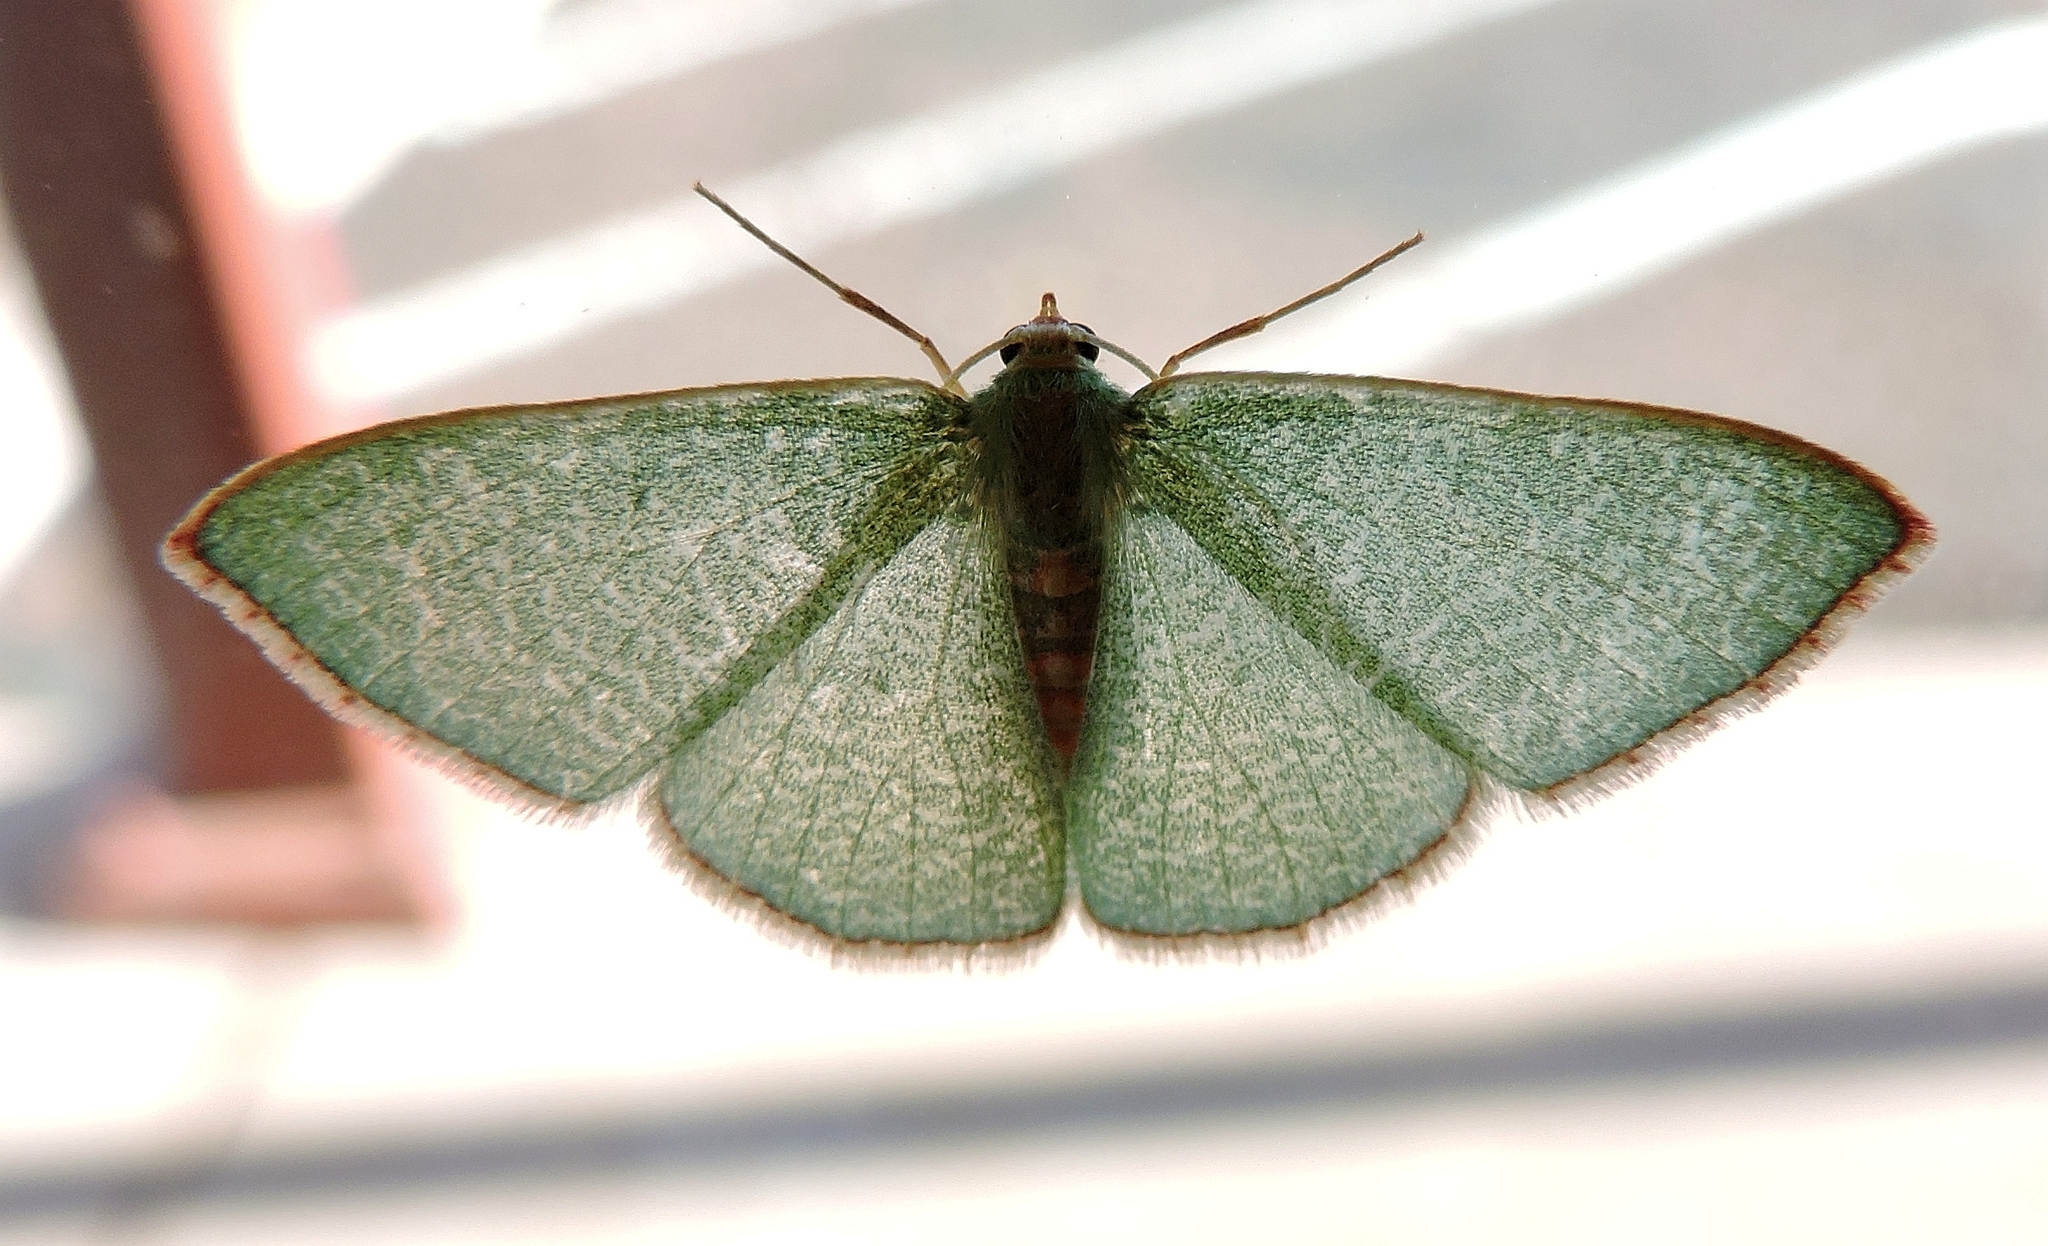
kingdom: Animalia
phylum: Arthropoda
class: Insecta
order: Lepidoptera
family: Geometridae
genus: Nemoria
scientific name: Nemoria festaria
